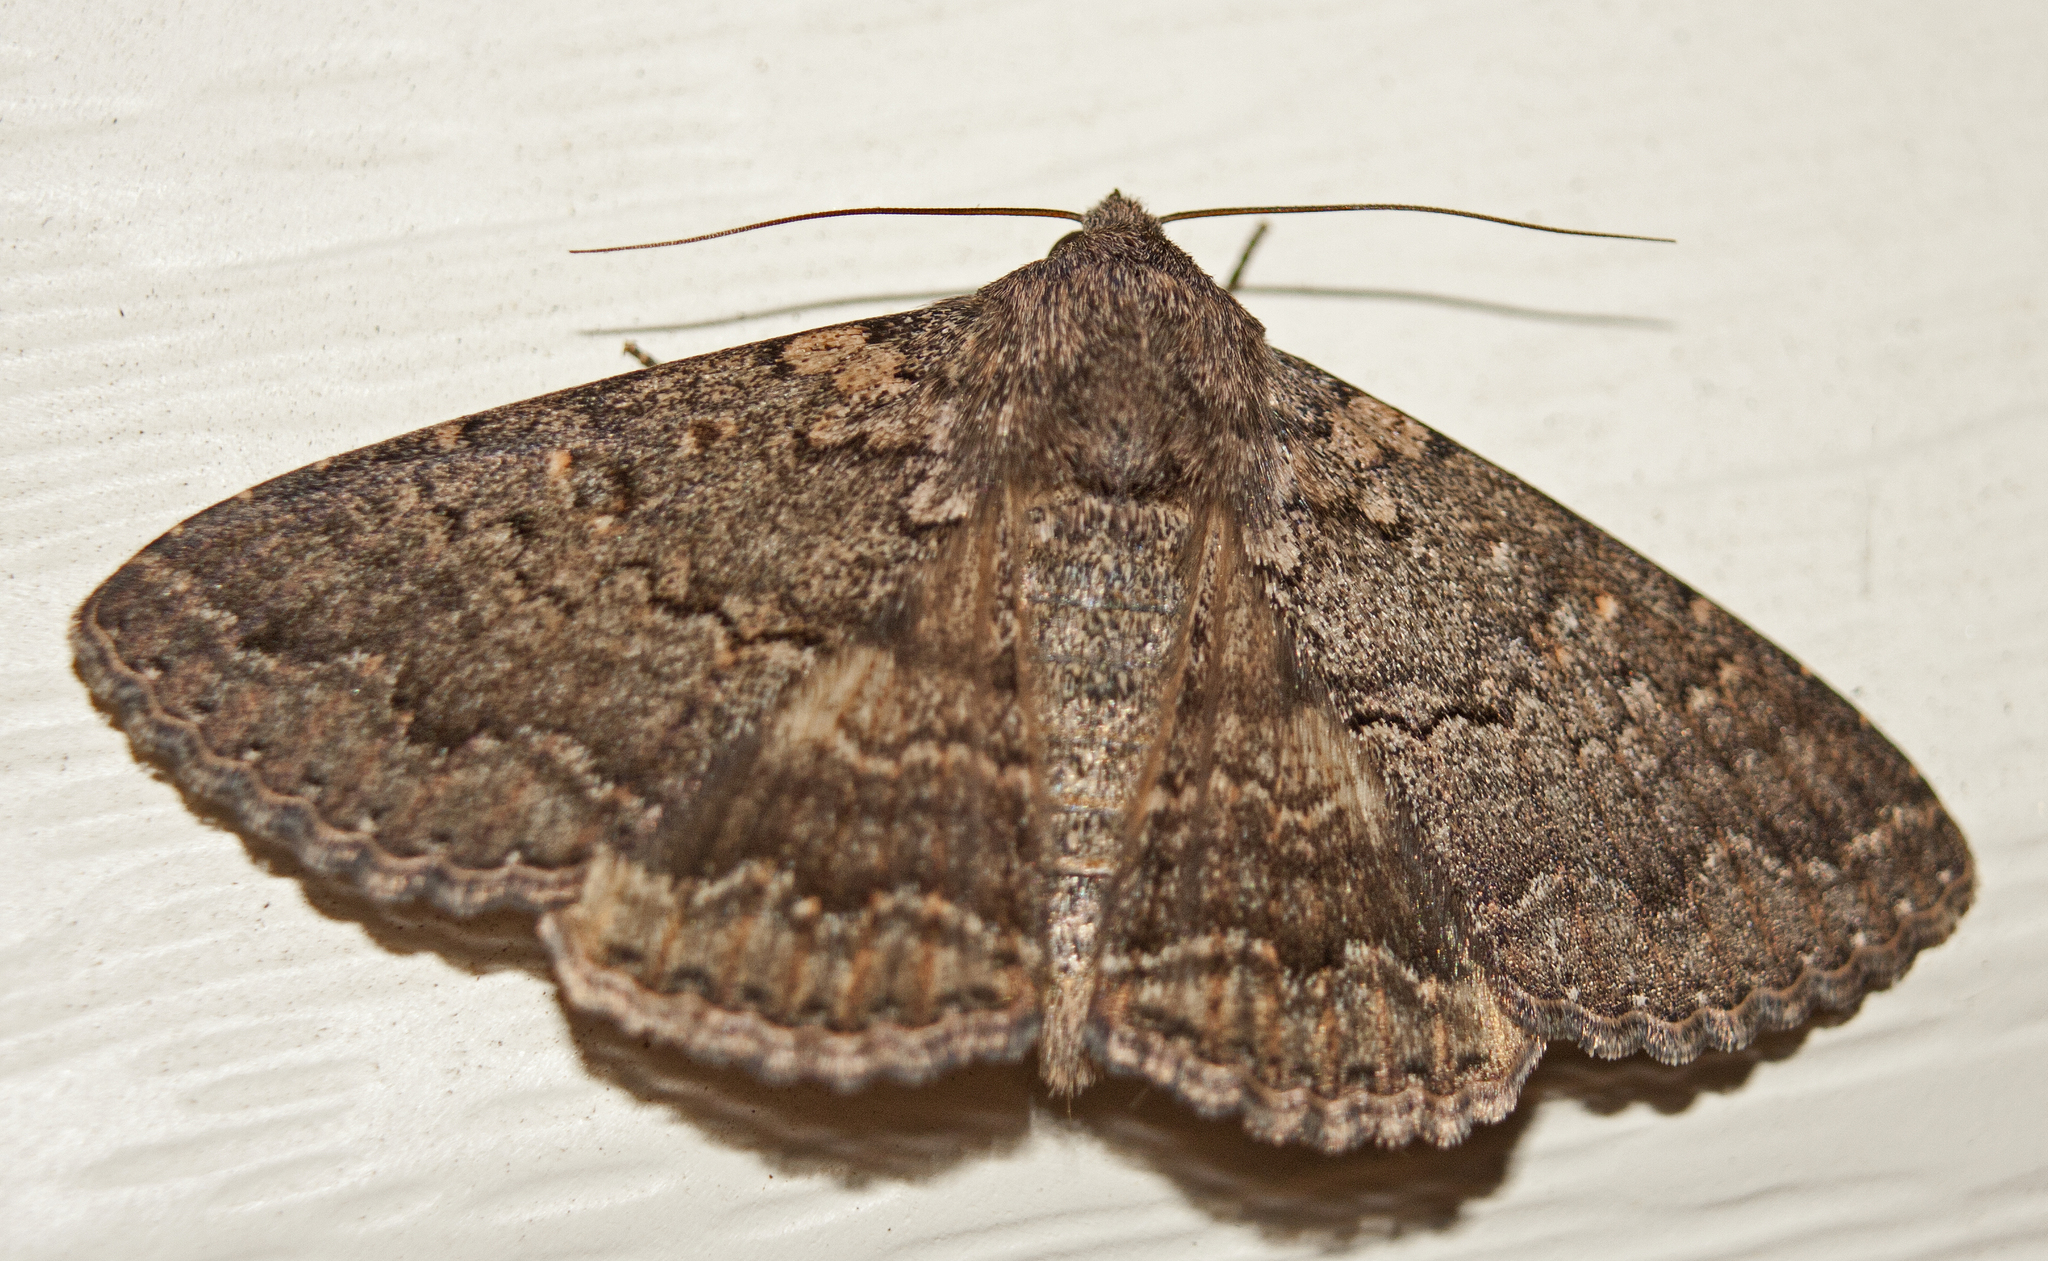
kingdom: Animalia
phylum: Arthropoda
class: Insecta
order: Lepidoptera
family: Erebidae
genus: Eudesmeola
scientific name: Eudesmeola lawsoni
